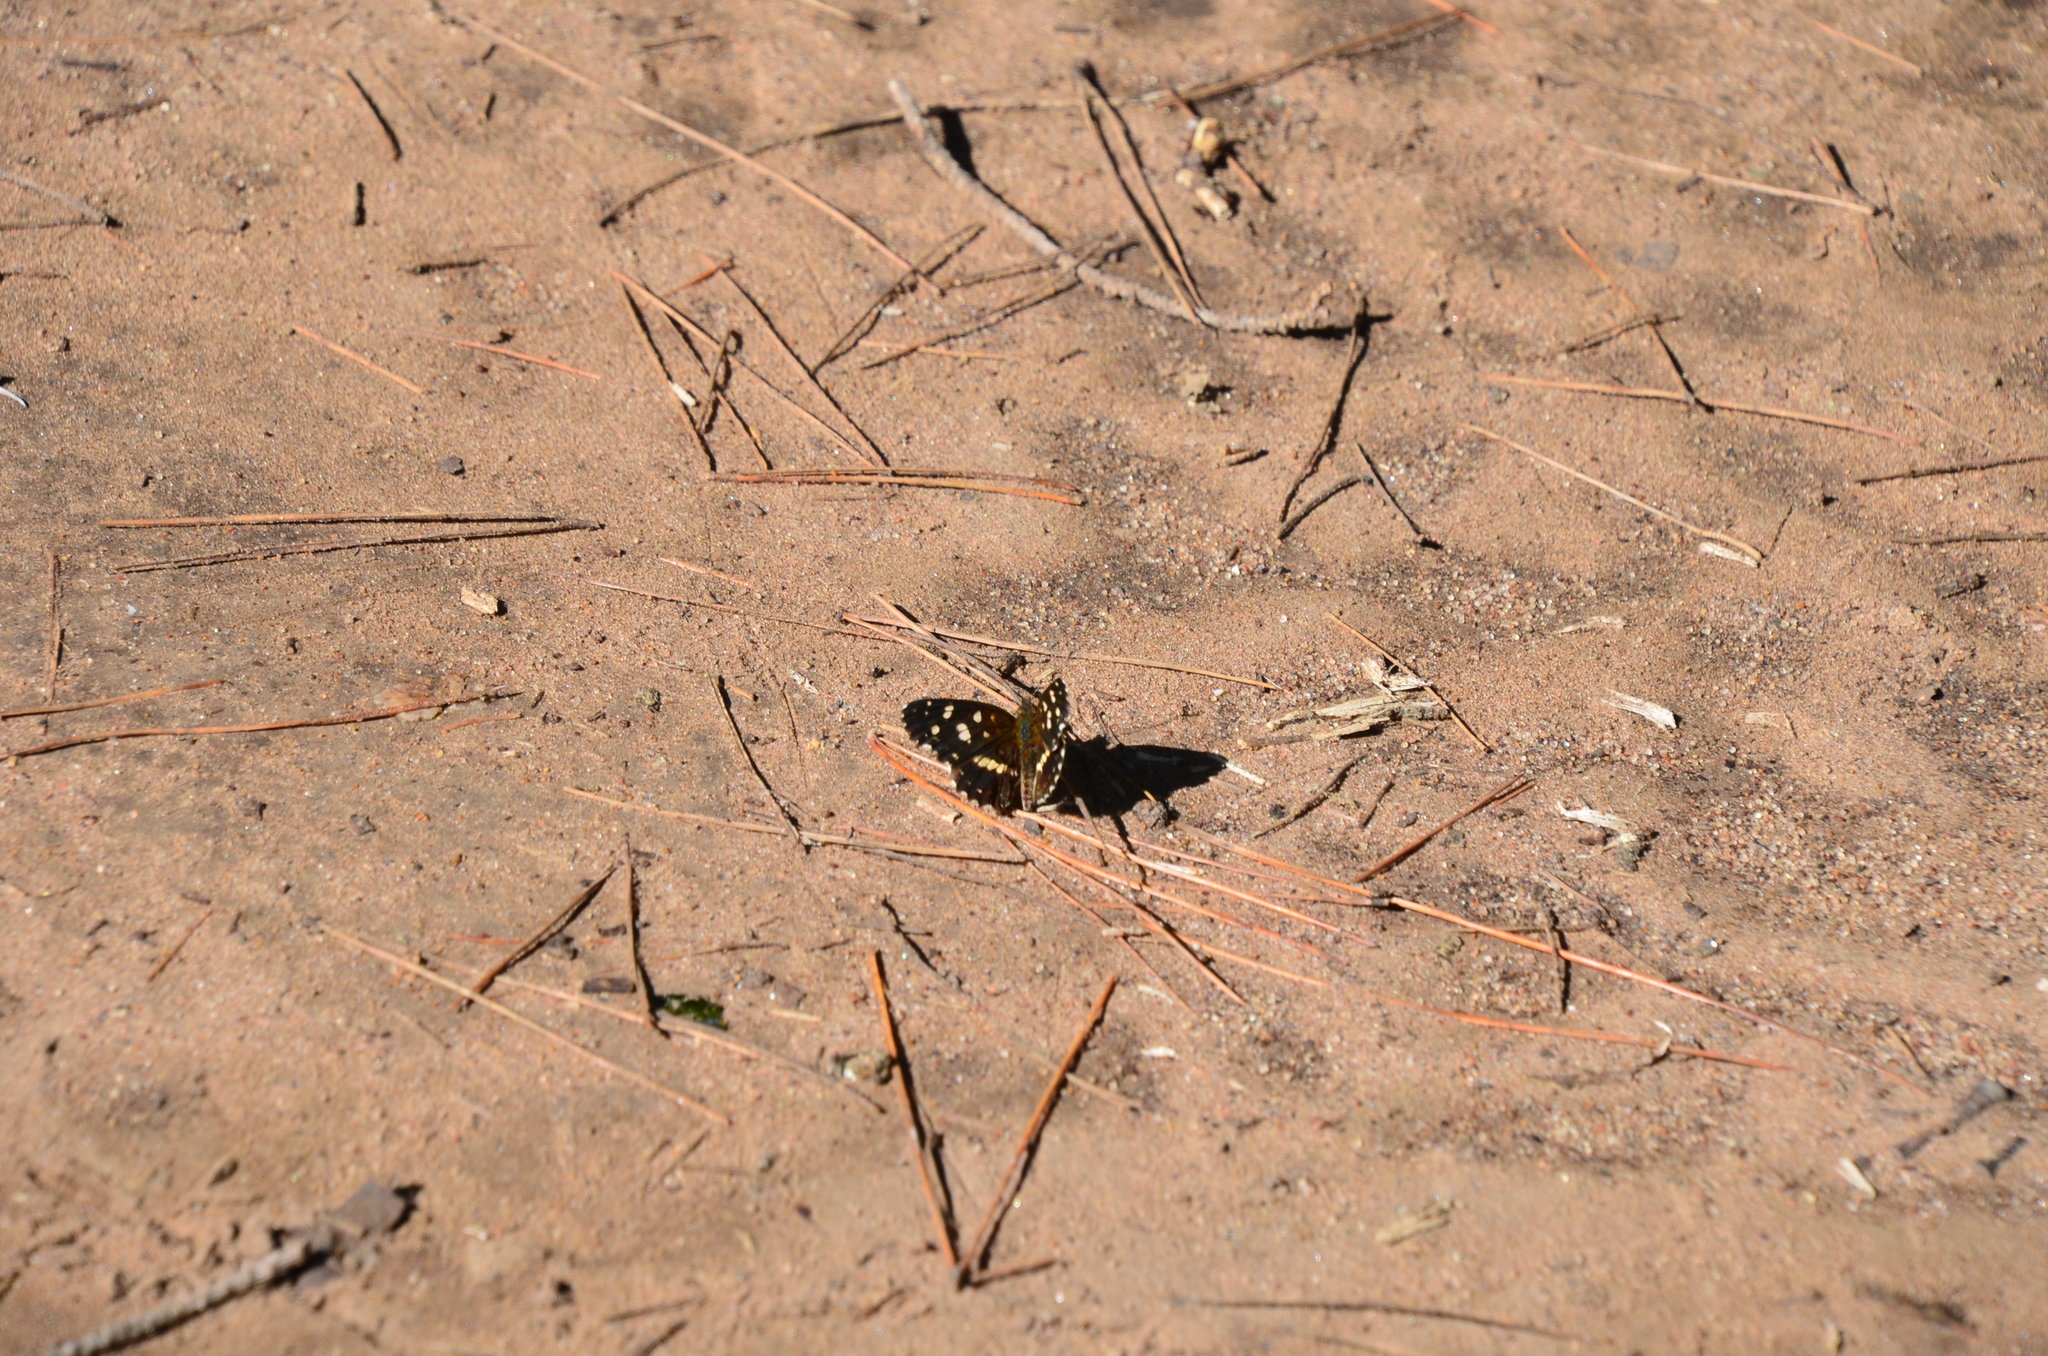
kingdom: Animalia
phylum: Arthropoda
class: Insecta
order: Lepidoptera
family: Nymphalidae
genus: Ortilia
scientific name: Ortilia ithra
